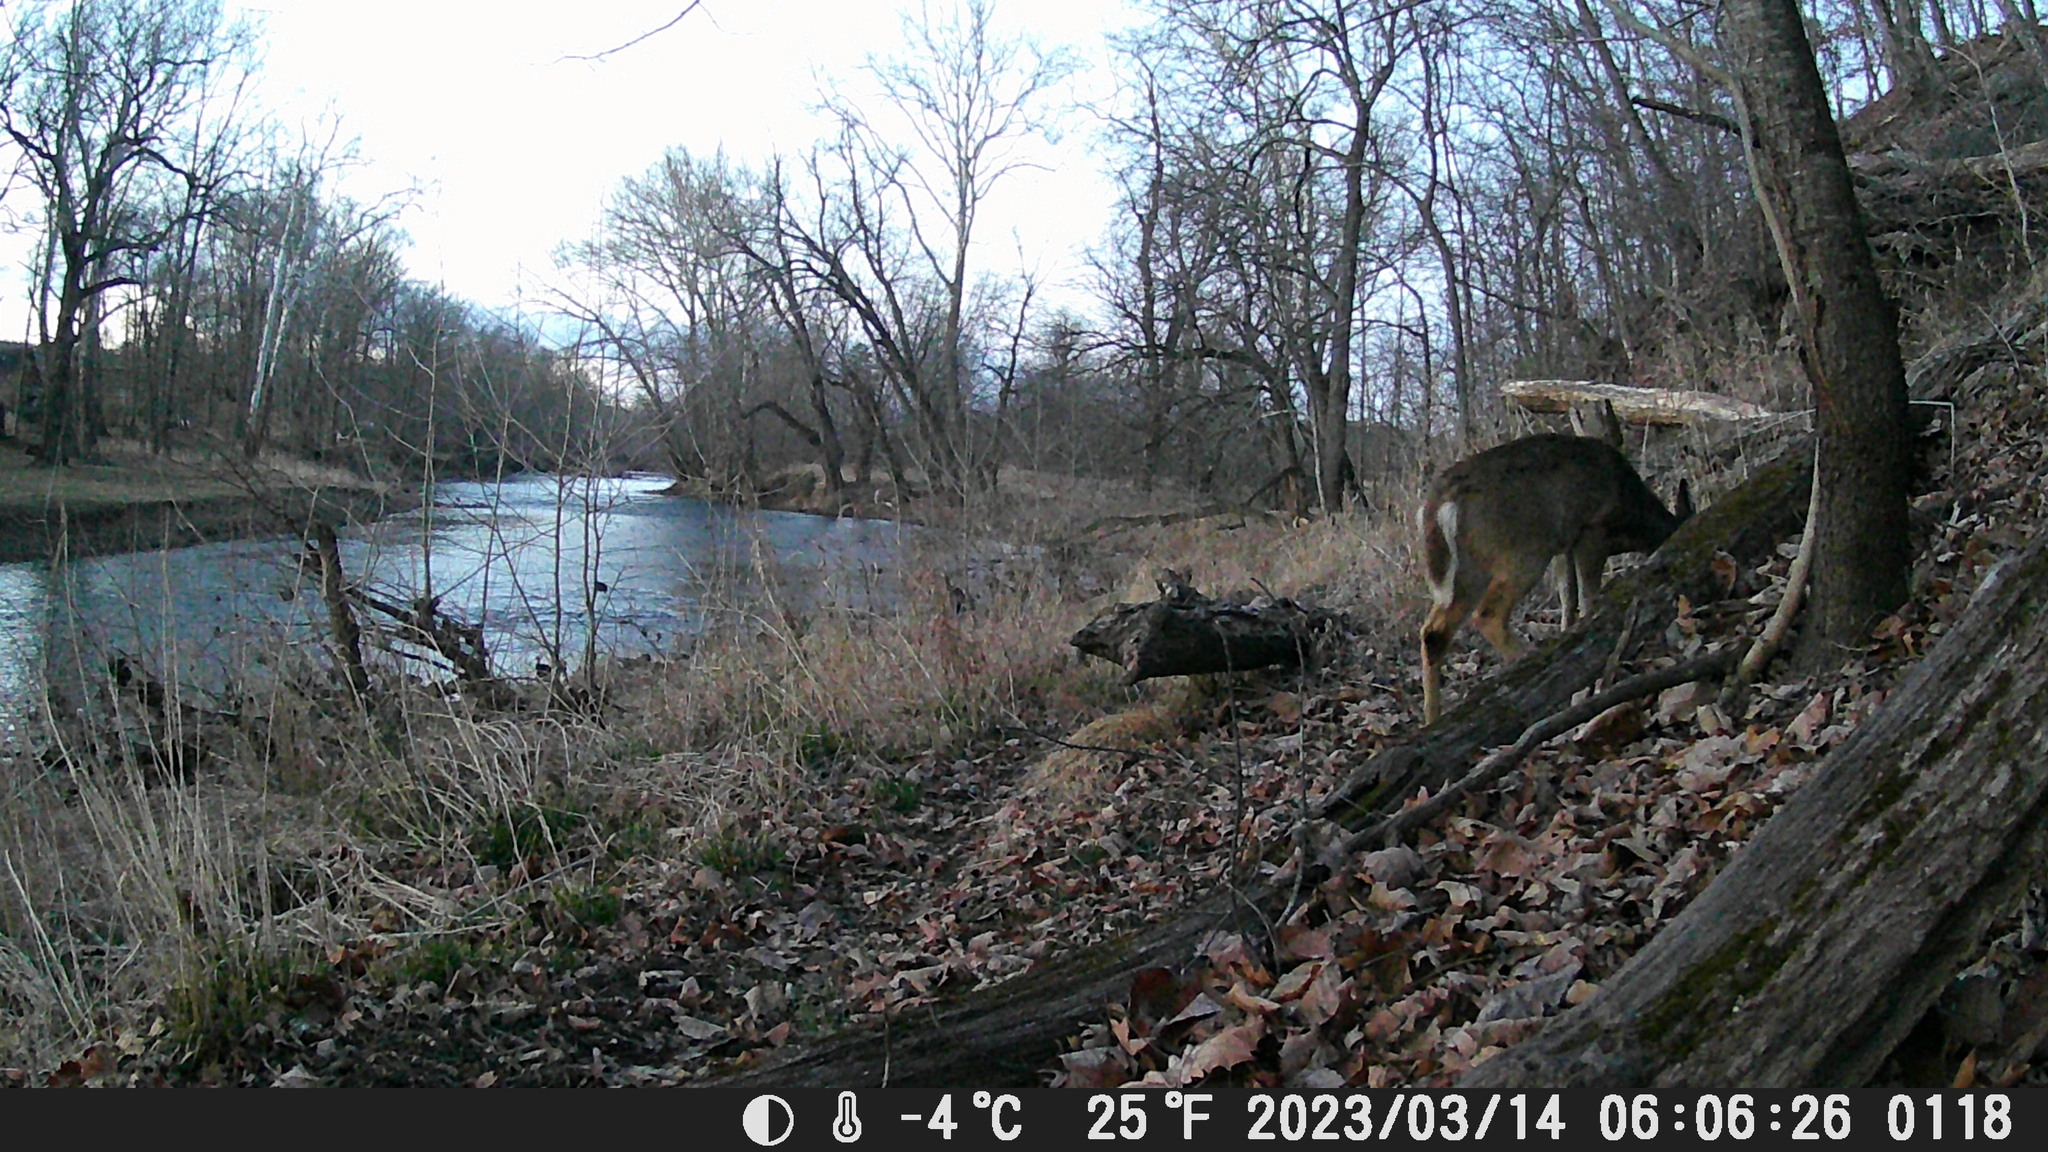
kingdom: Animalia
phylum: Chordata
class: Mammalia
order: Artiodactyla
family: Cervidae
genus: Odocoileus
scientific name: Odocoileus virginianus
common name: White-tailed deer
